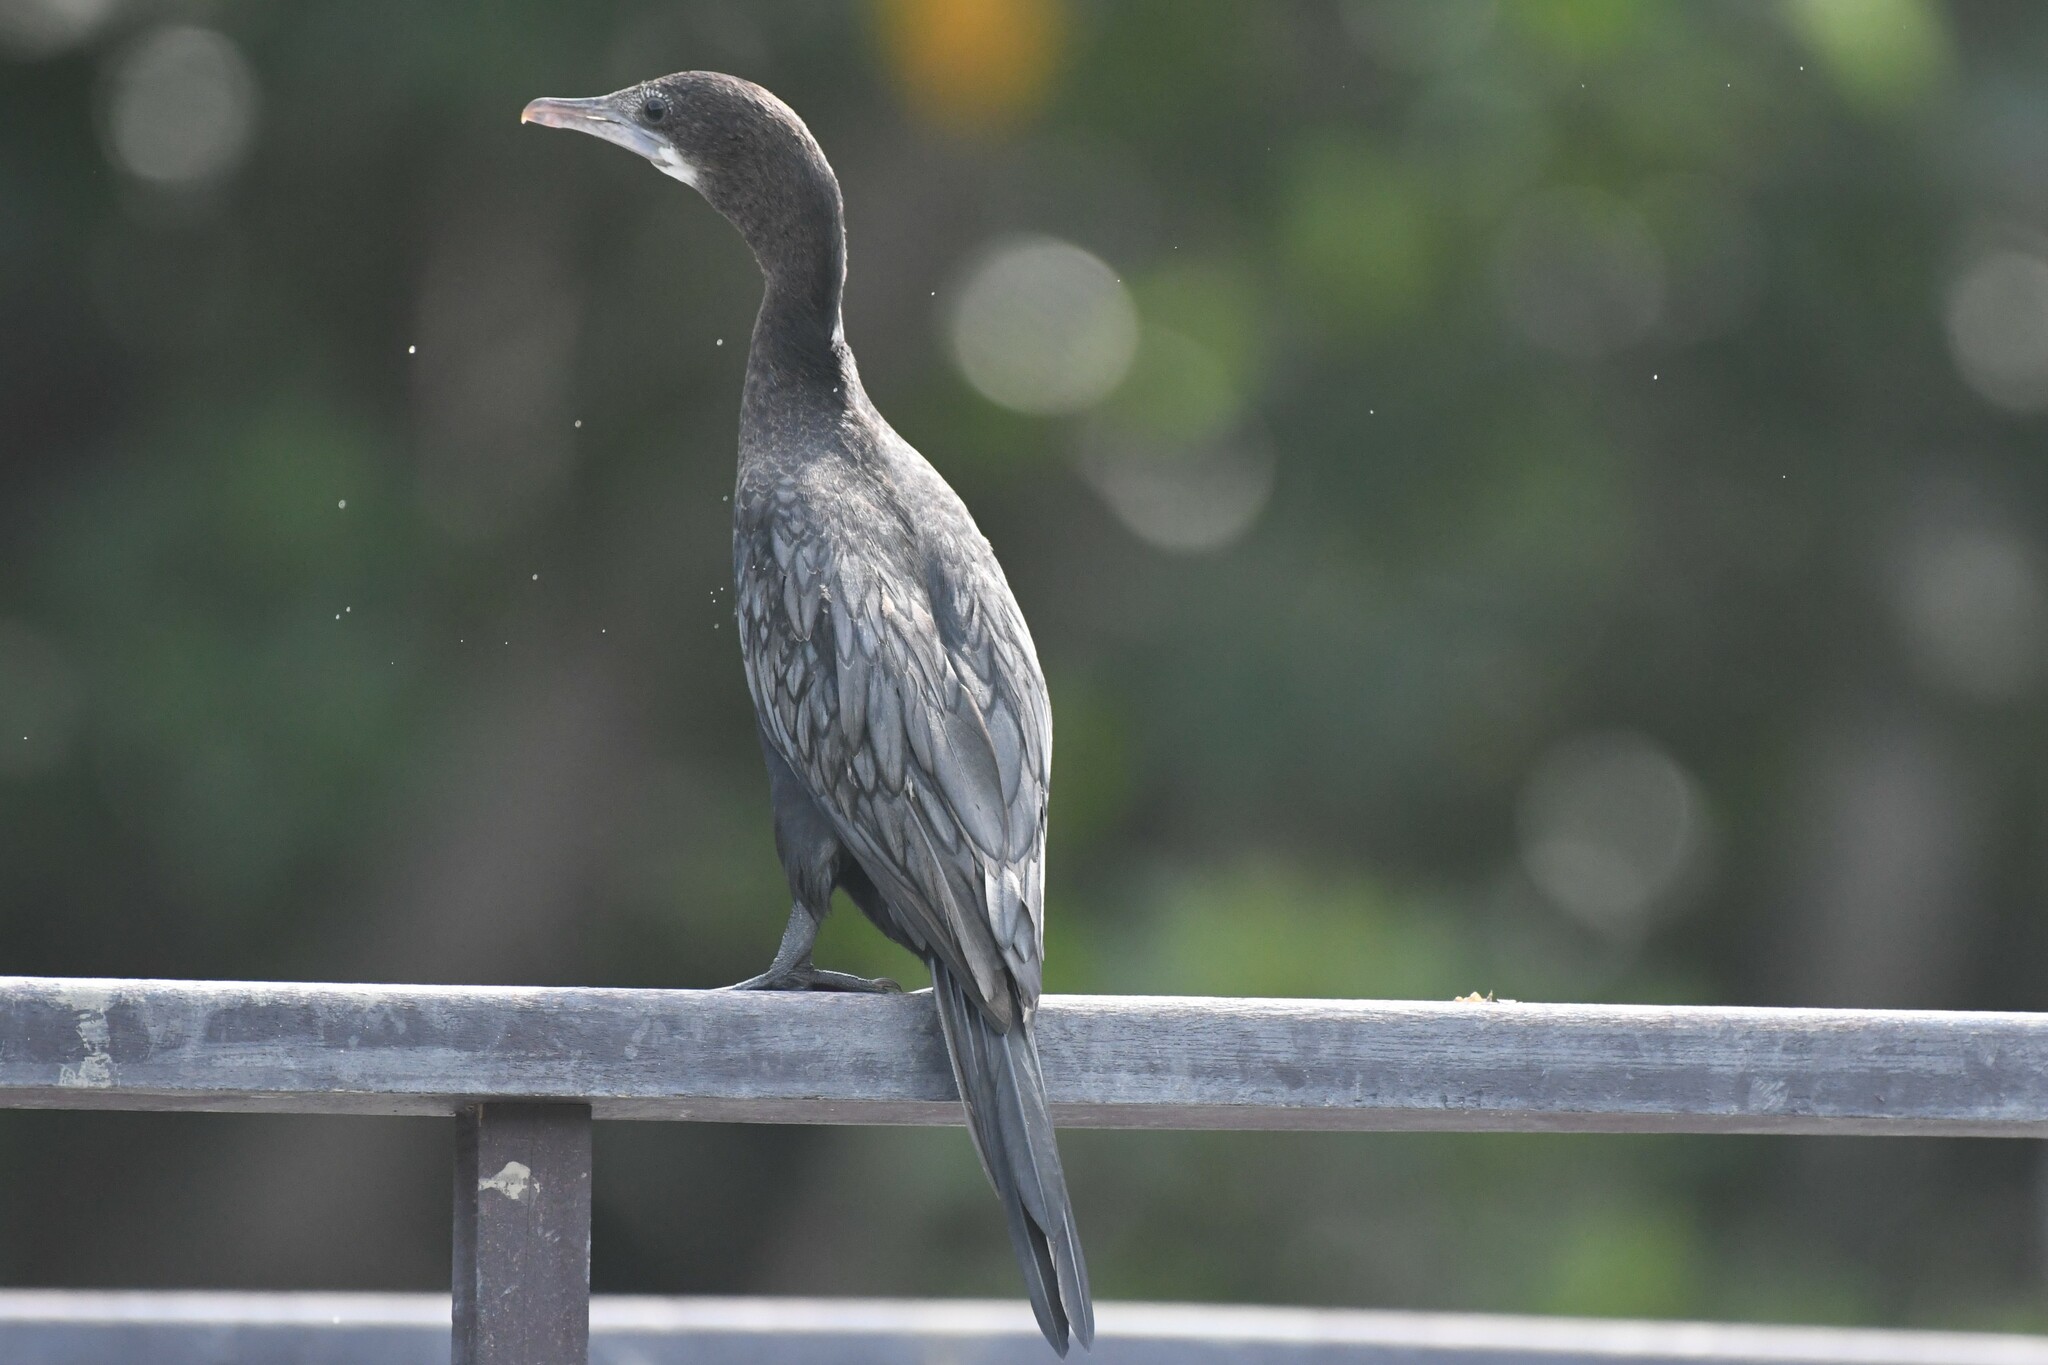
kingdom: Animalia
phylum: Chordata
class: Aves
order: Suliformes
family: Phalacrocoracidae
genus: Microcarbo
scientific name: Microcarbo niger
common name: Little cormorant
